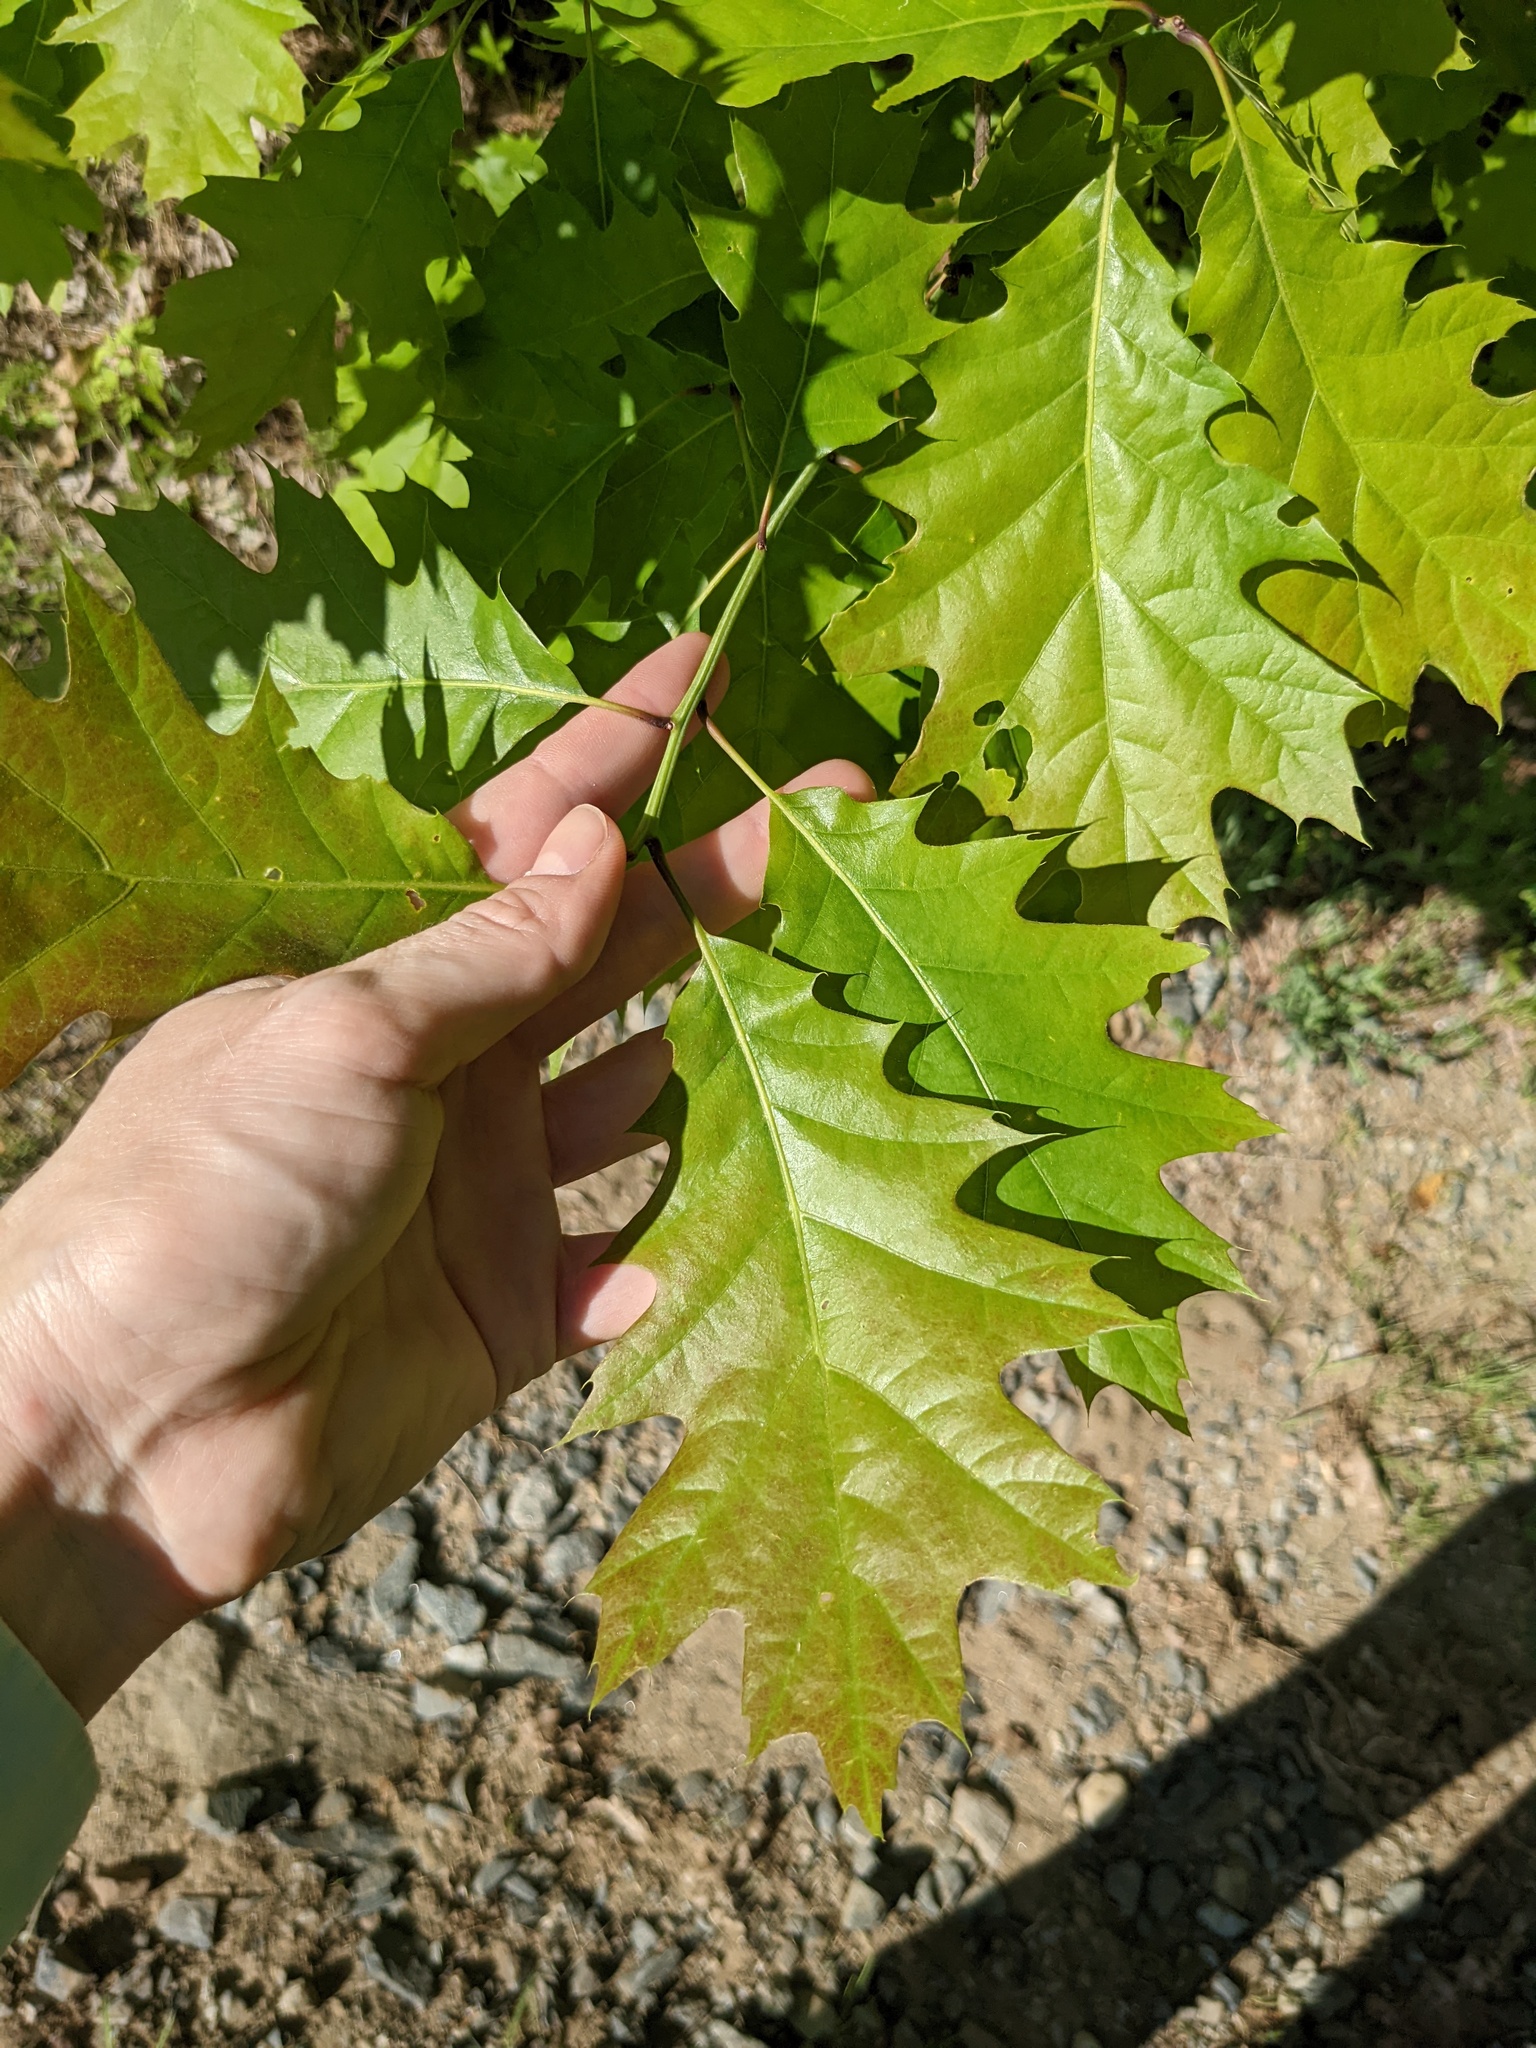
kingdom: Plantae
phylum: Tracheophyta
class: Magnoliopsida
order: Fagales
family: Fagaceae
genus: Quercus
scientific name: Quercus rubra
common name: Red oak
